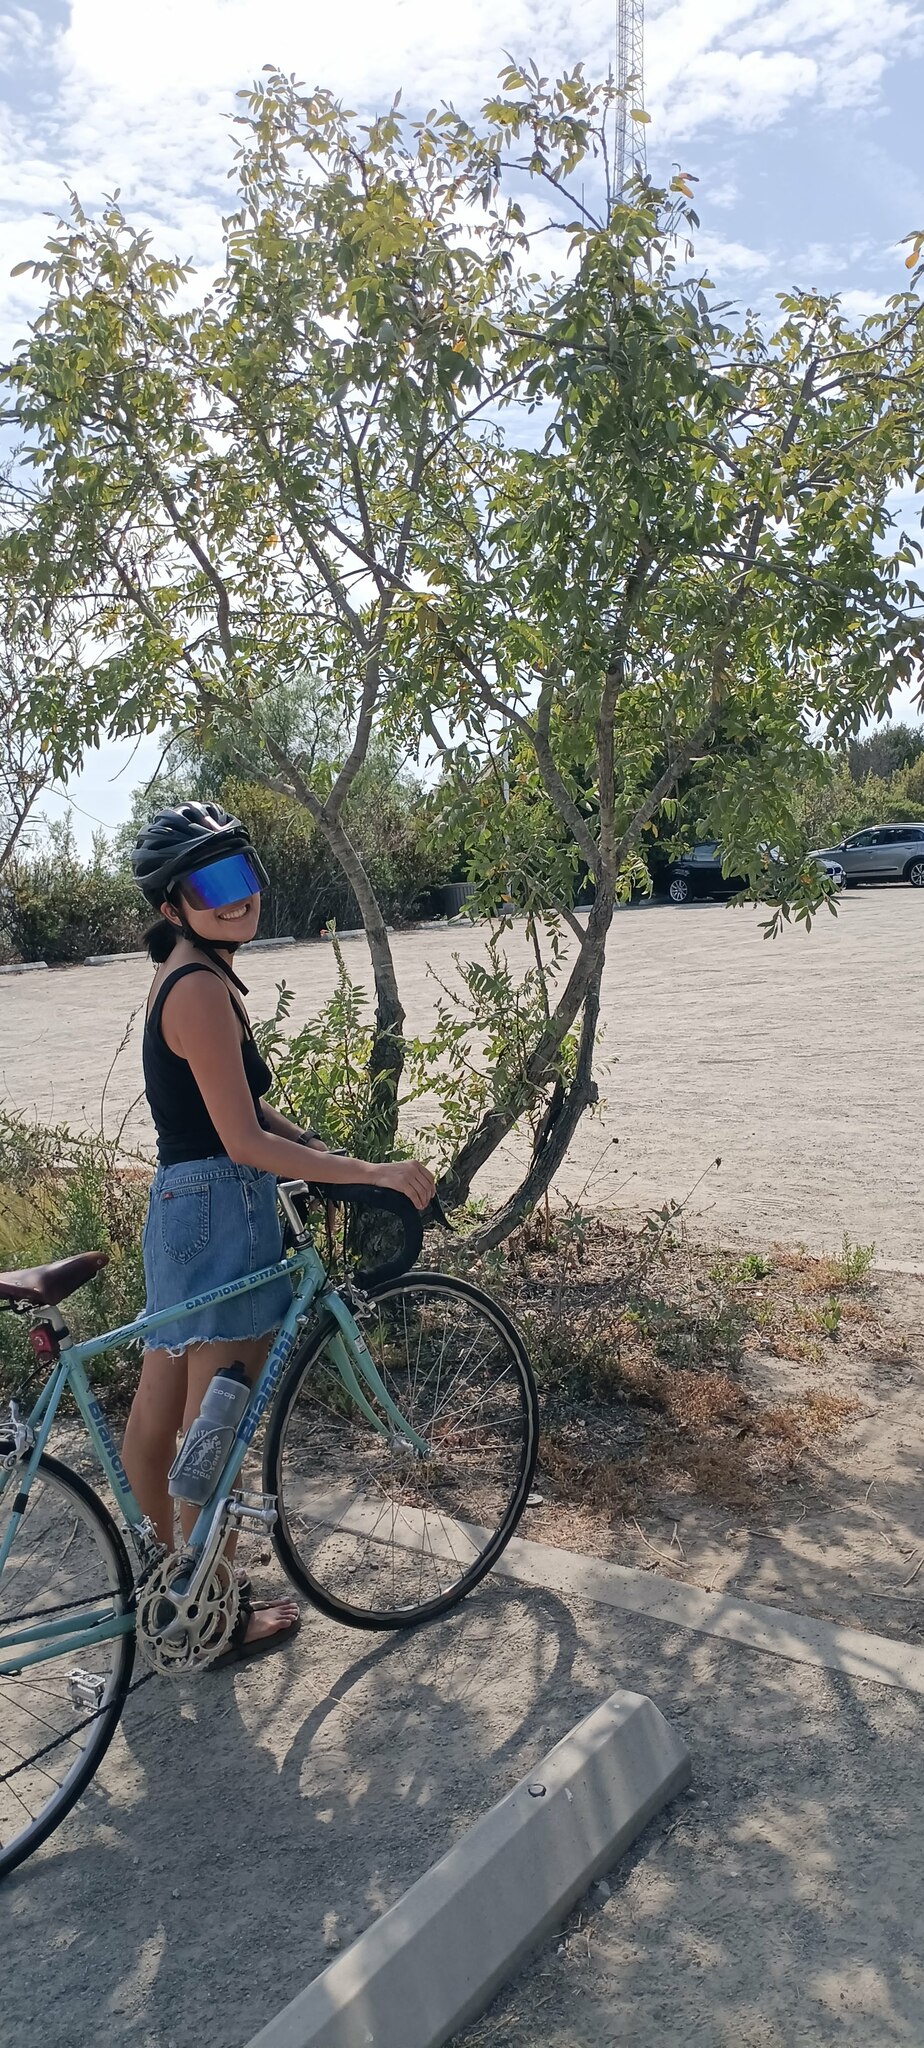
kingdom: Plantae
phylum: Tracheophyta
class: Magnoliopsida
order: Fagales
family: Juglandaceae
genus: Juglans
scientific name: Juglans californica
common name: Southern california black walnut
